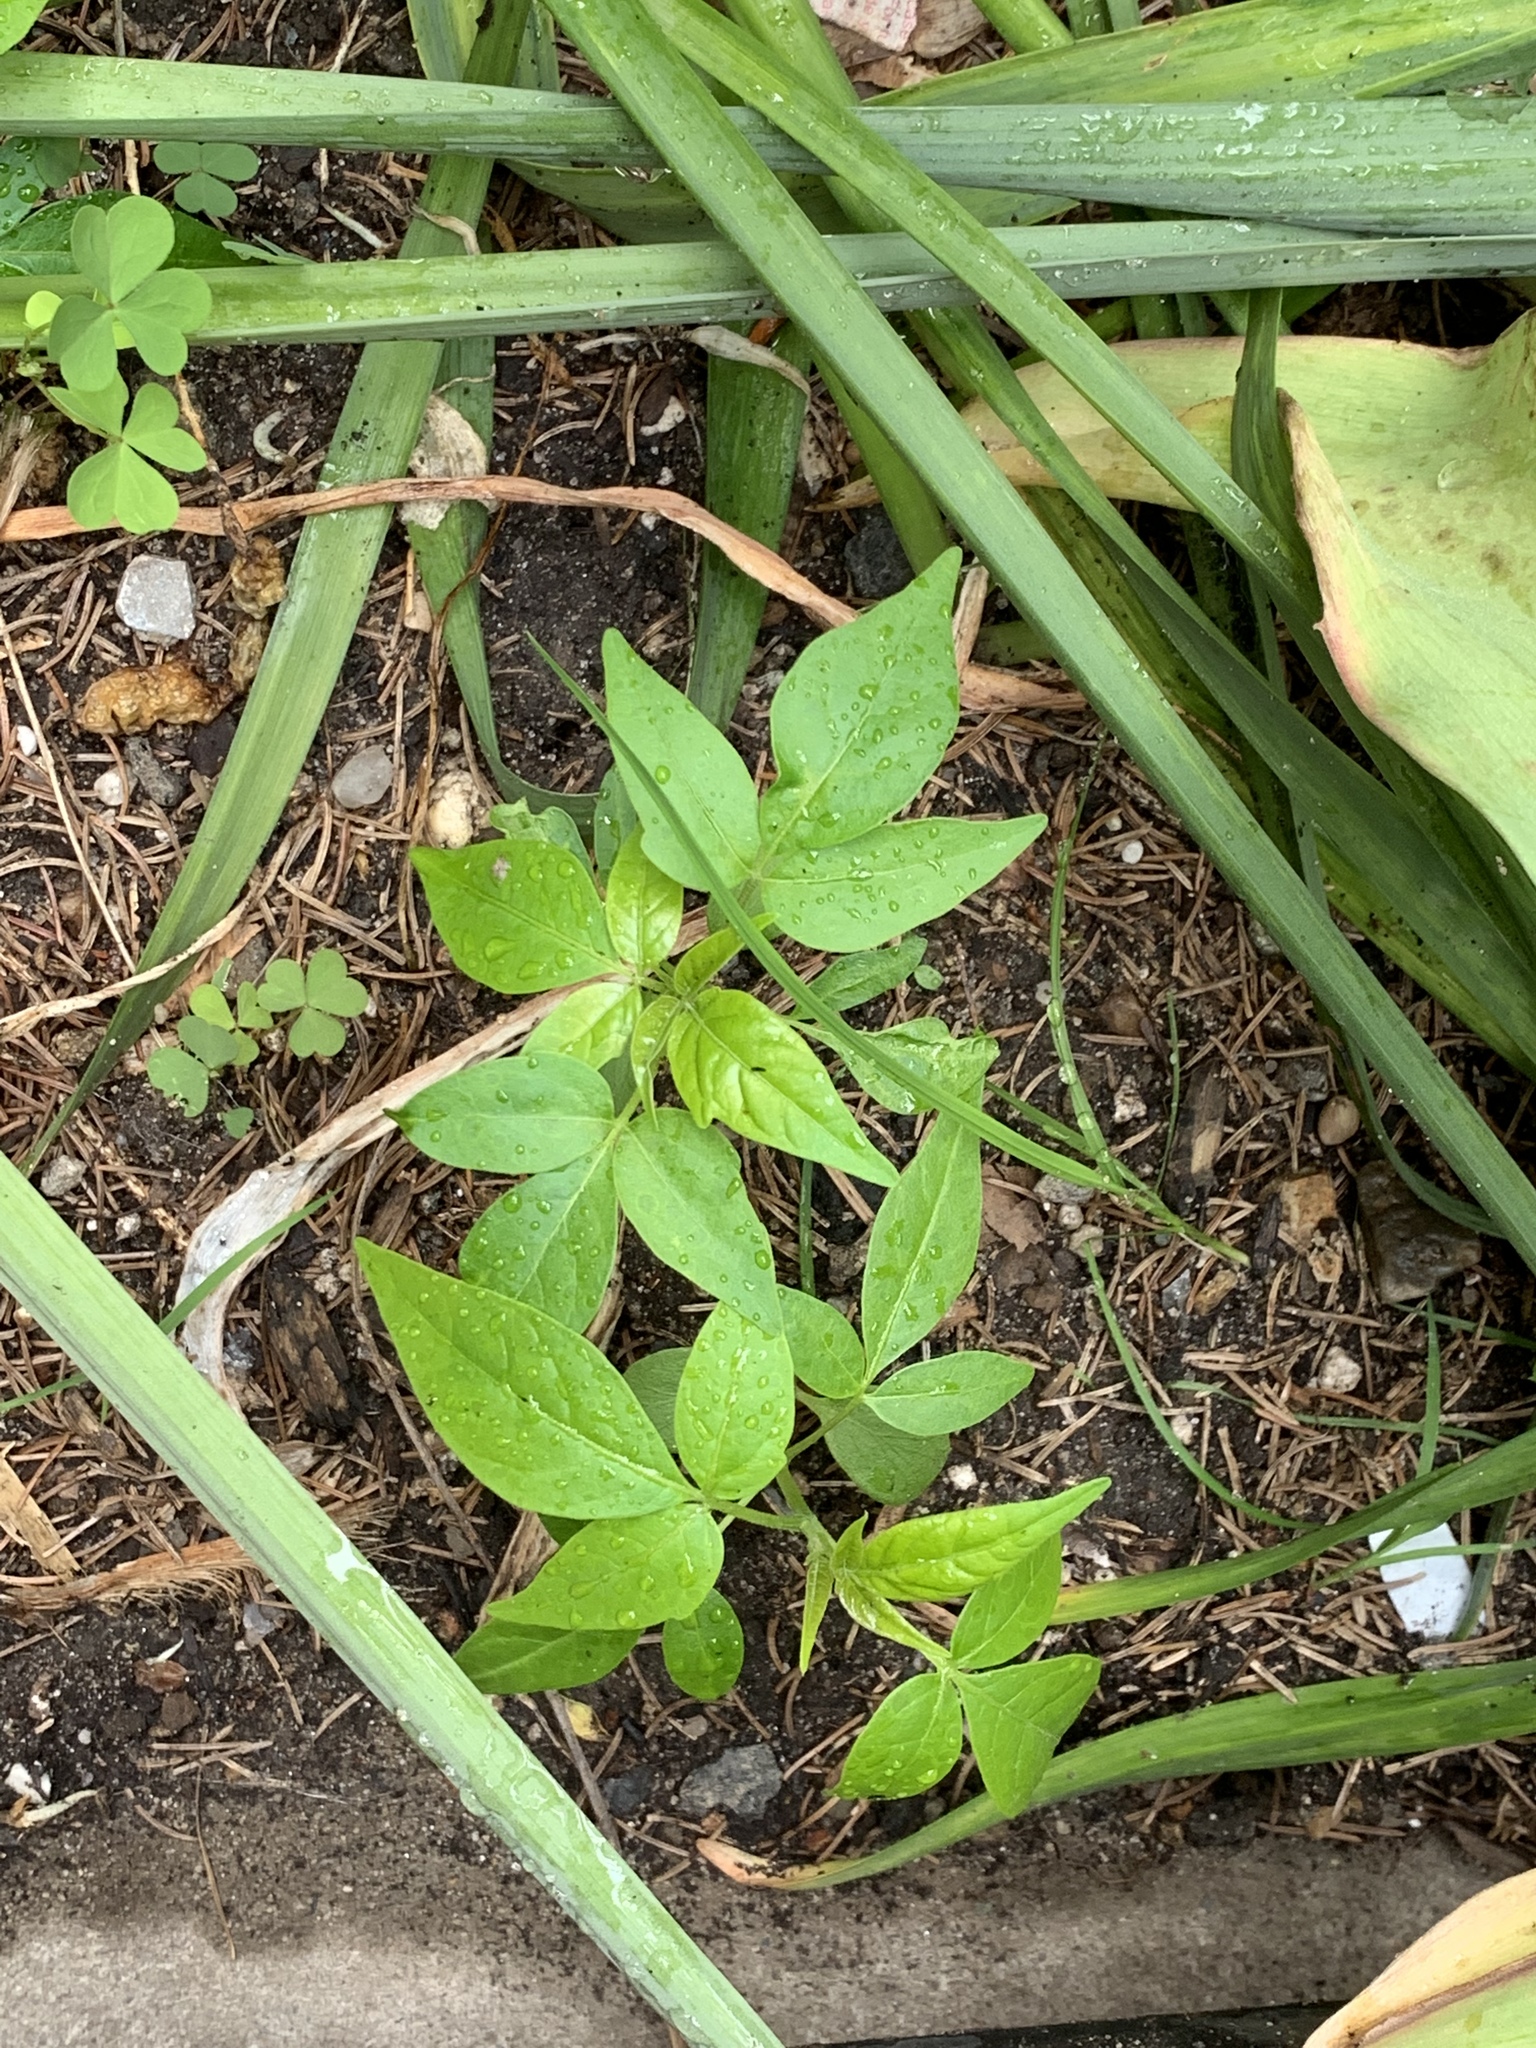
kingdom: Plantae
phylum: Tracheophyta
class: Magnoliopsida
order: Sapindales
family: Simaroubaceae
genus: Ailanthus
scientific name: Ailanthus altissima
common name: Tree-of-heaven
